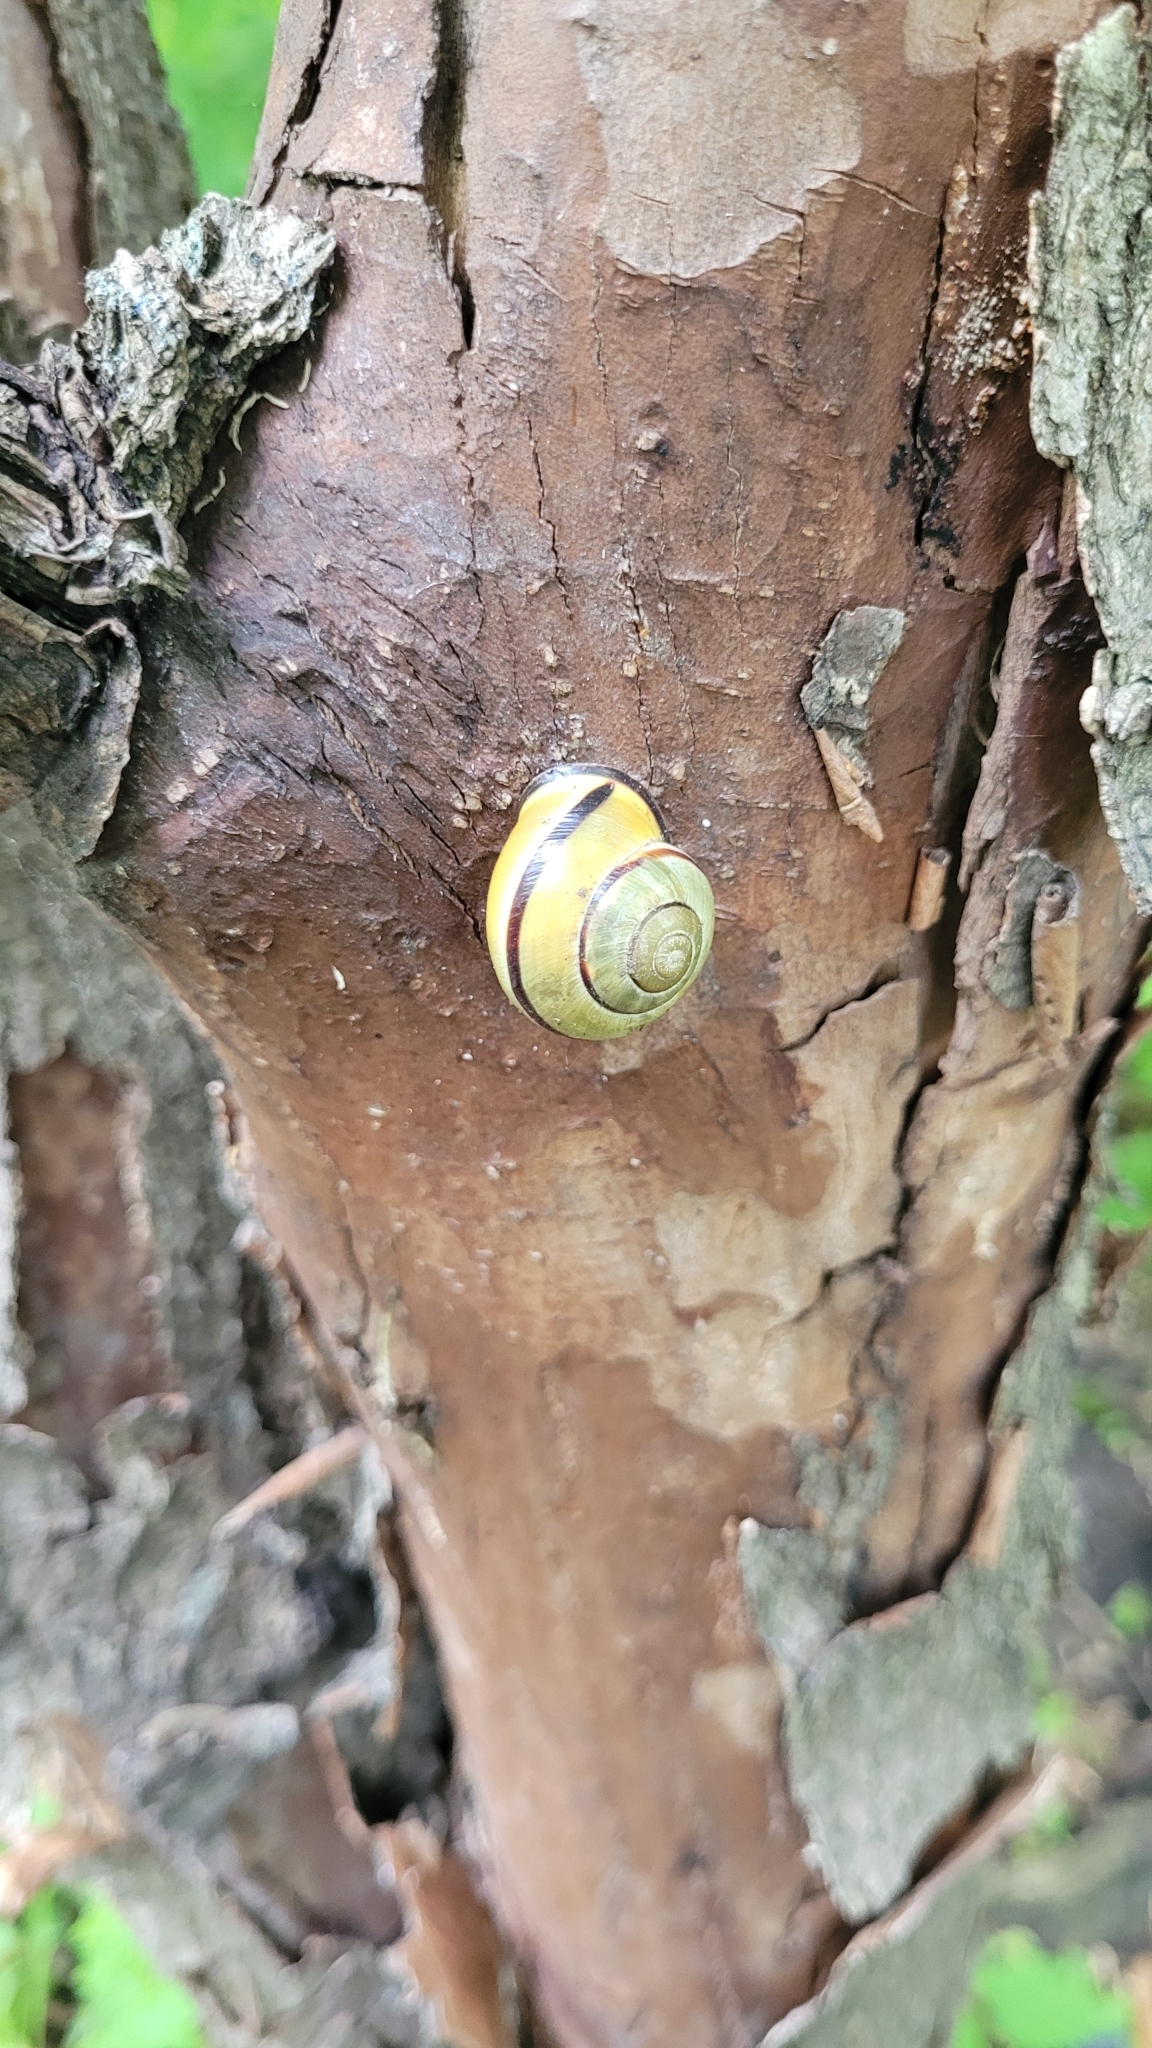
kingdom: Animalia
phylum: Mollusca
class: Gastropoda
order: Stylommatophora
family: Helicidae
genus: Cepaea
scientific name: Cepaea nemoralis
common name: Grovesnail
